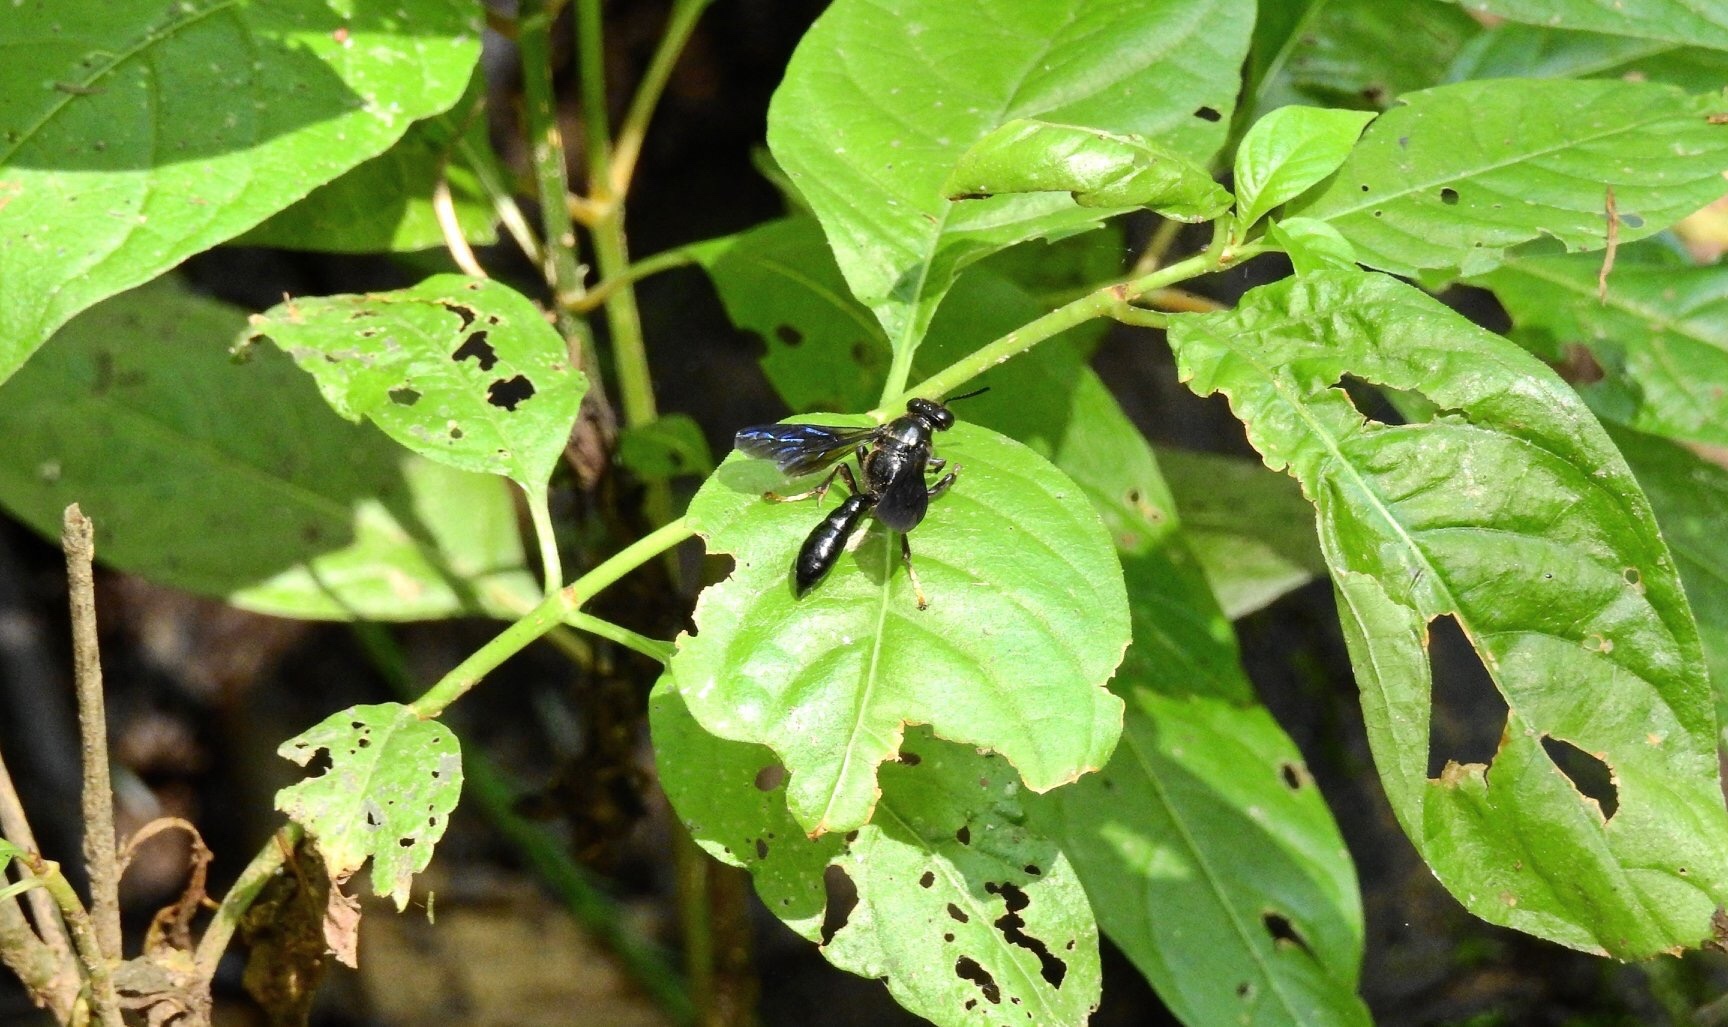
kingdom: Animalia
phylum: Arthropoda
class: Insecta
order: Hymenoptera
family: Crabronidae
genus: Trypoxylon
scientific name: Trypoxylon politum
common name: Organ-pipe mud-dauber wasp
